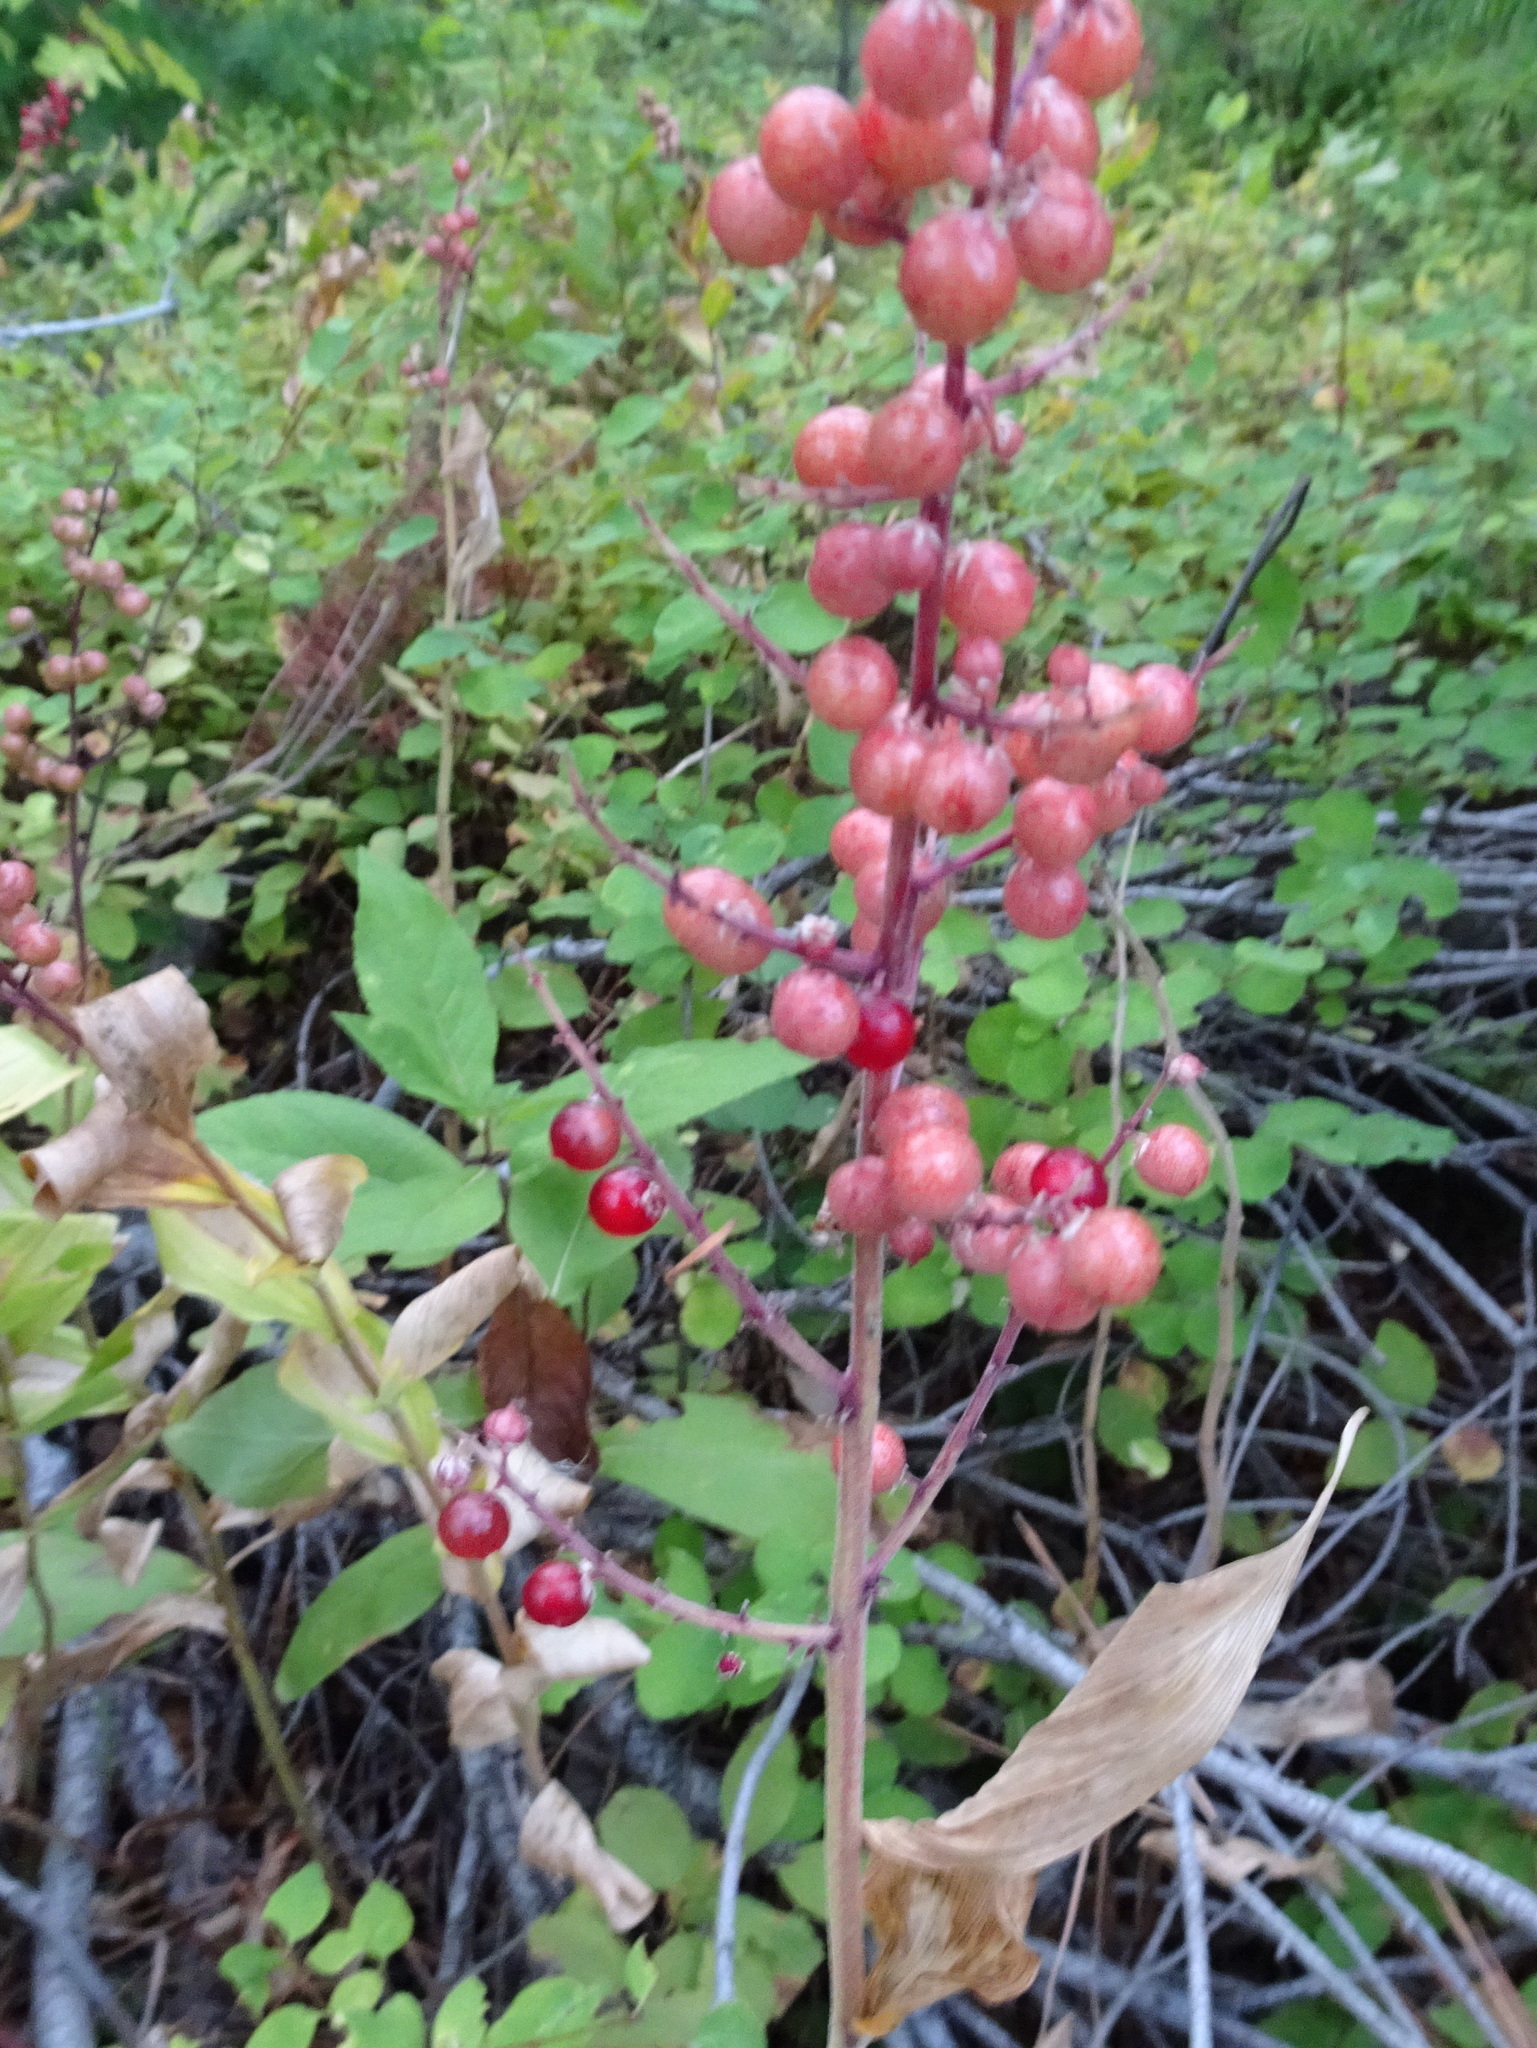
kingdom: Plantae
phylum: Tracheophyta
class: Liliopsida
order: Asparagales
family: Asparagaceae
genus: Maianthemum
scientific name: Maianthemum racemosum
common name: False spikenard
